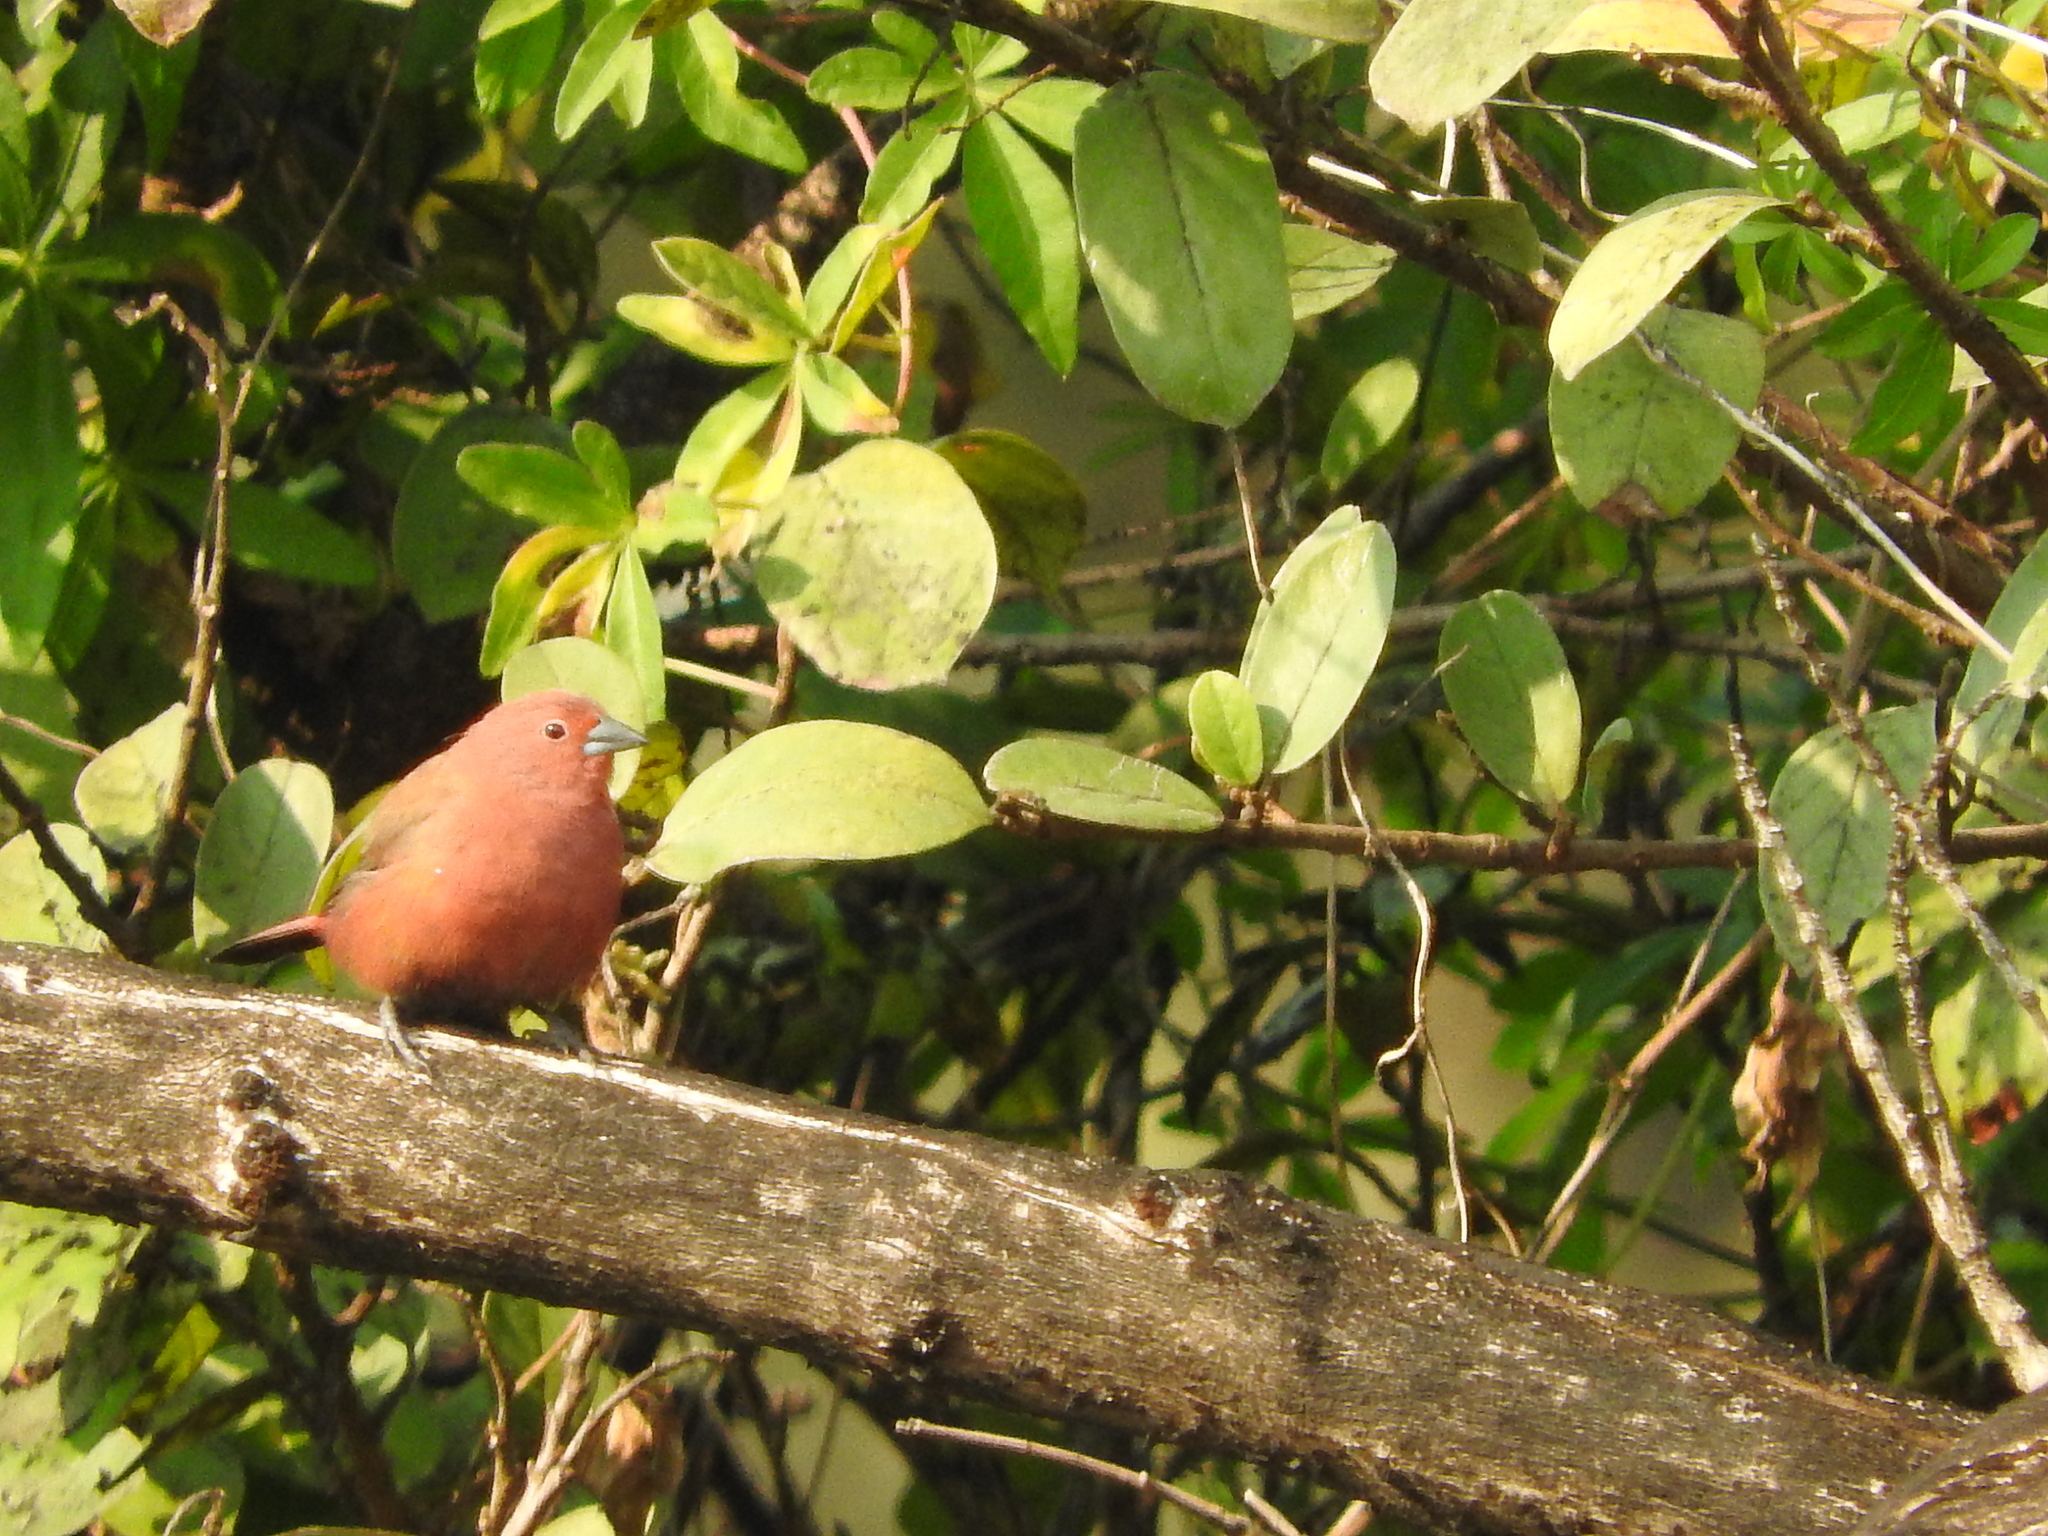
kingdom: Animalia
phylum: Chordata
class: Aves
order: Passeriformes
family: Estrildidae
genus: Lagonosticta
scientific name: Lagonosticta rhodopareia
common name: Jameson's firefinch
